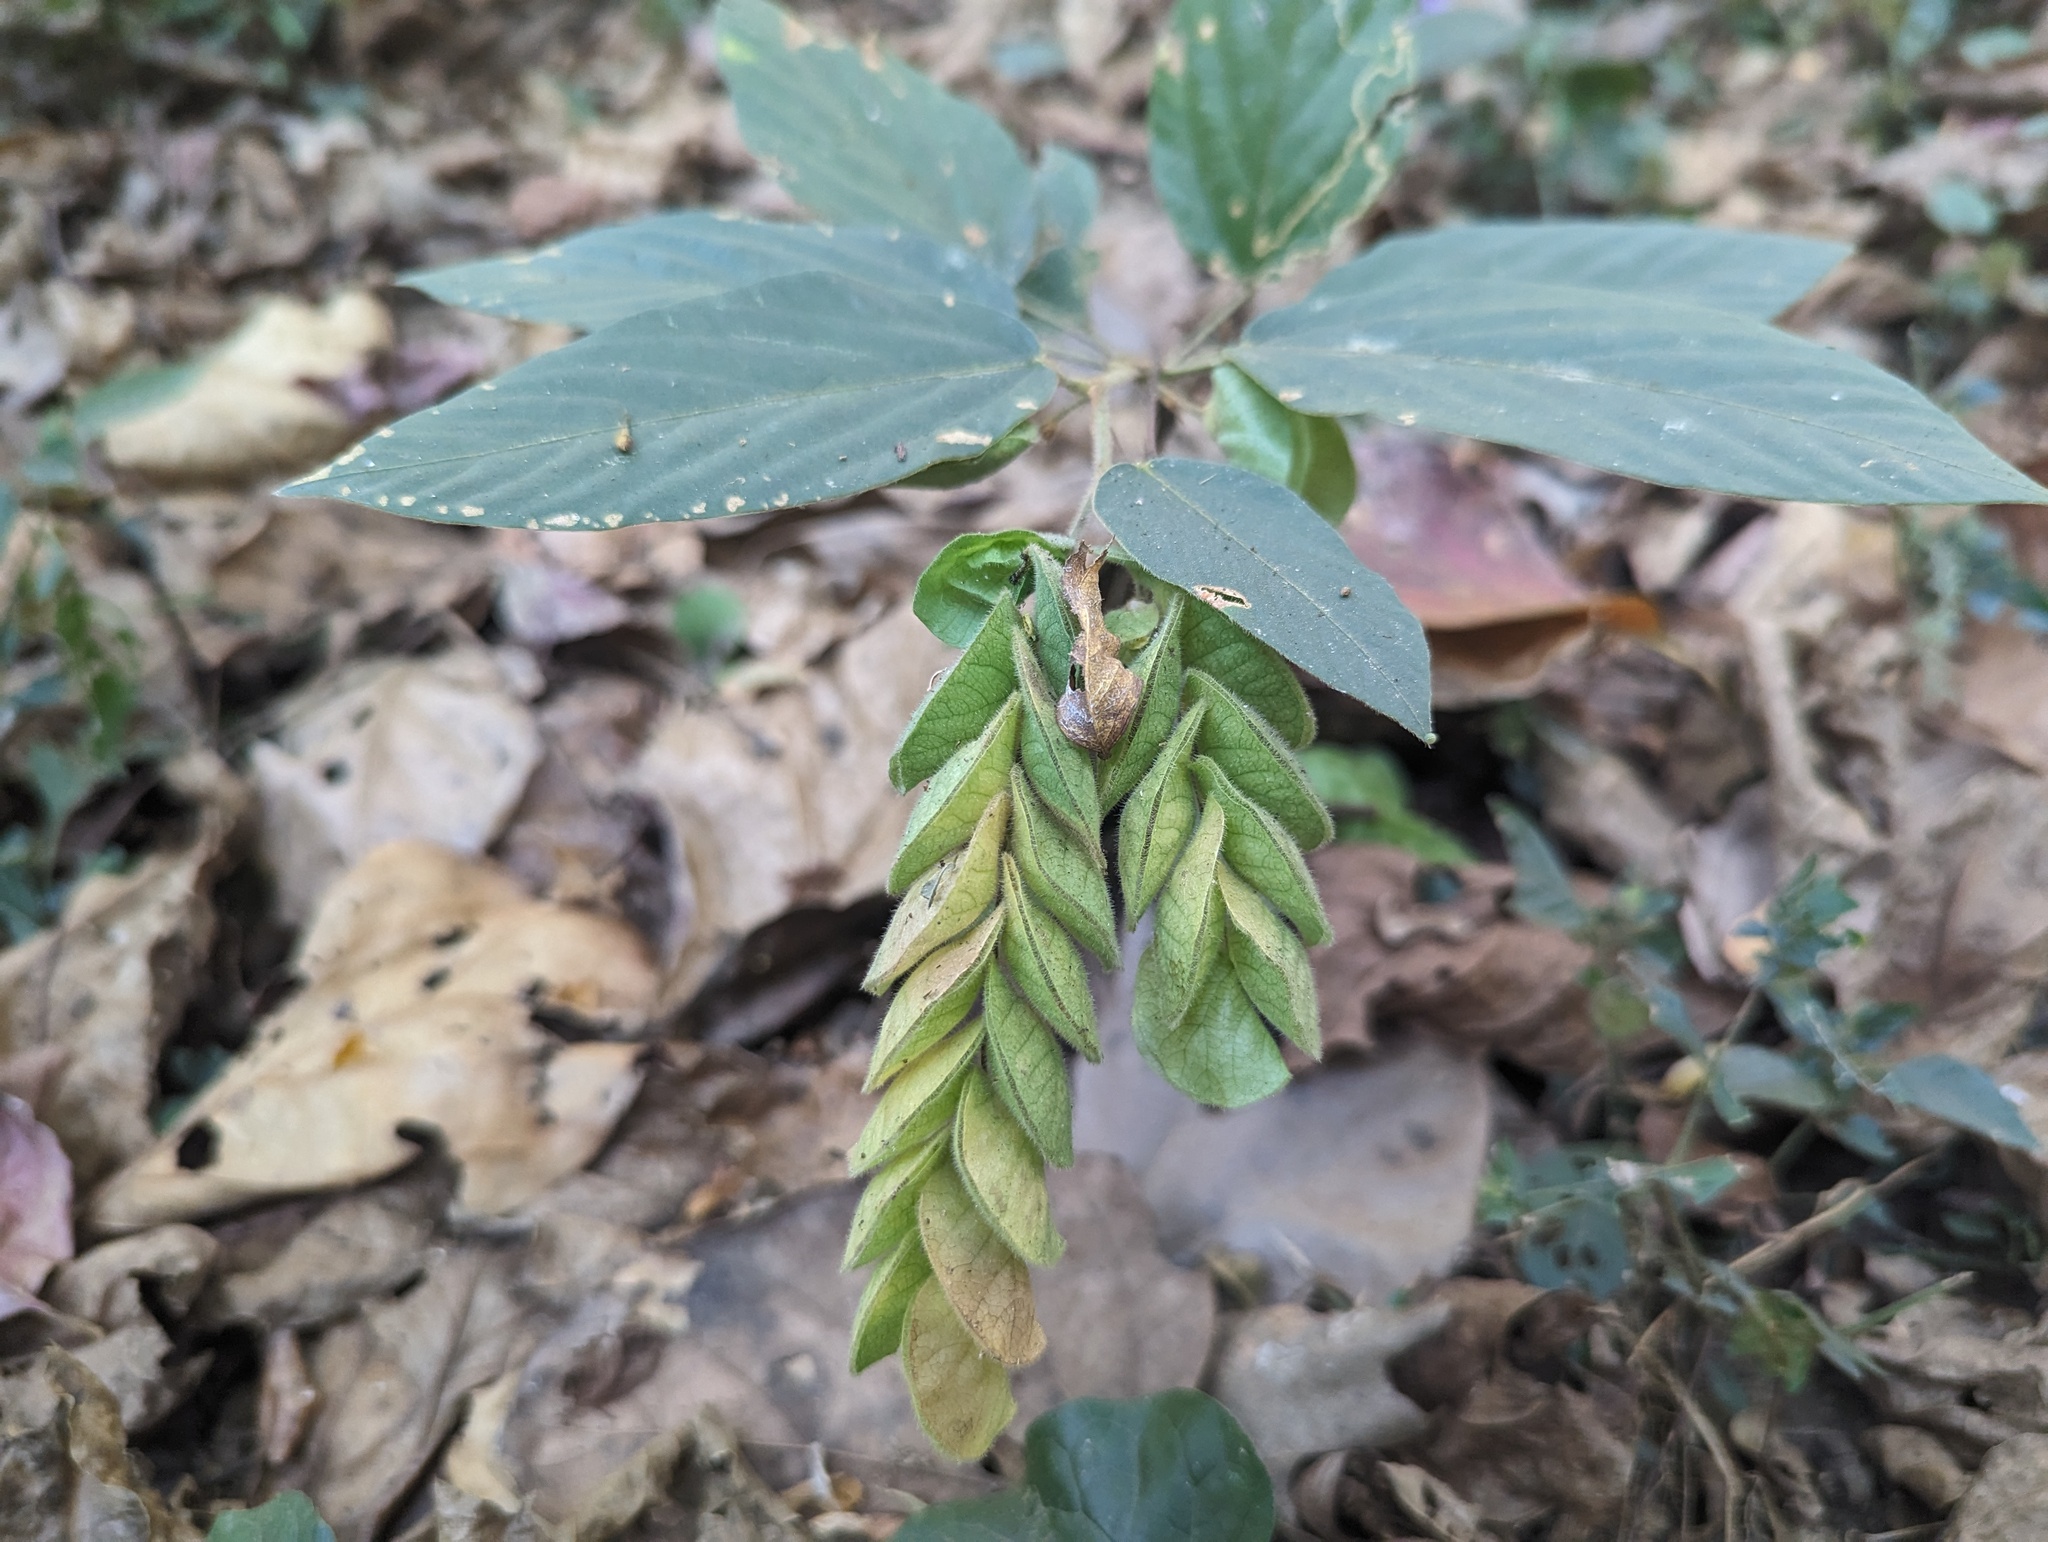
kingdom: Plantae
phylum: Tracheophyta
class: Magnoliopsida
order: Fabales
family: Fabaceae
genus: Flemingia
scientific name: Flemingia strobilifera
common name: Wild hops
